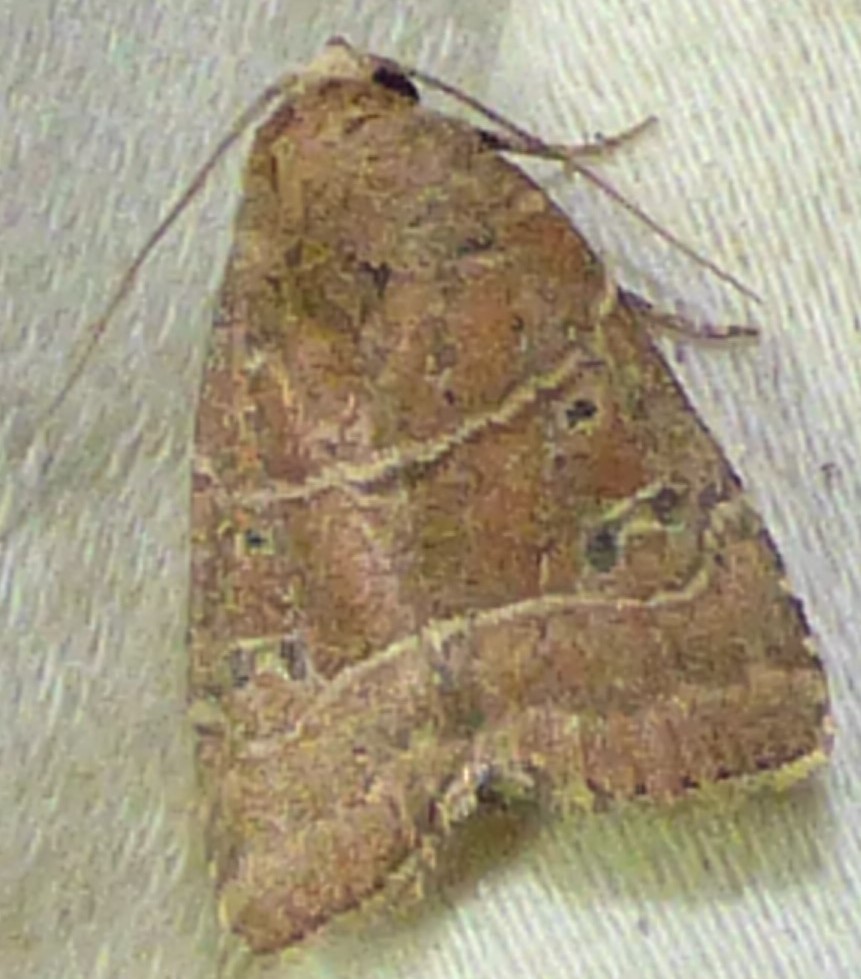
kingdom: Animalia
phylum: Arthropoda
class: Insecta
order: Lepidoptera
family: Noctuidae
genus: Elaphria
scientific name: Elaphria grata
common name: Grateful midget moth
